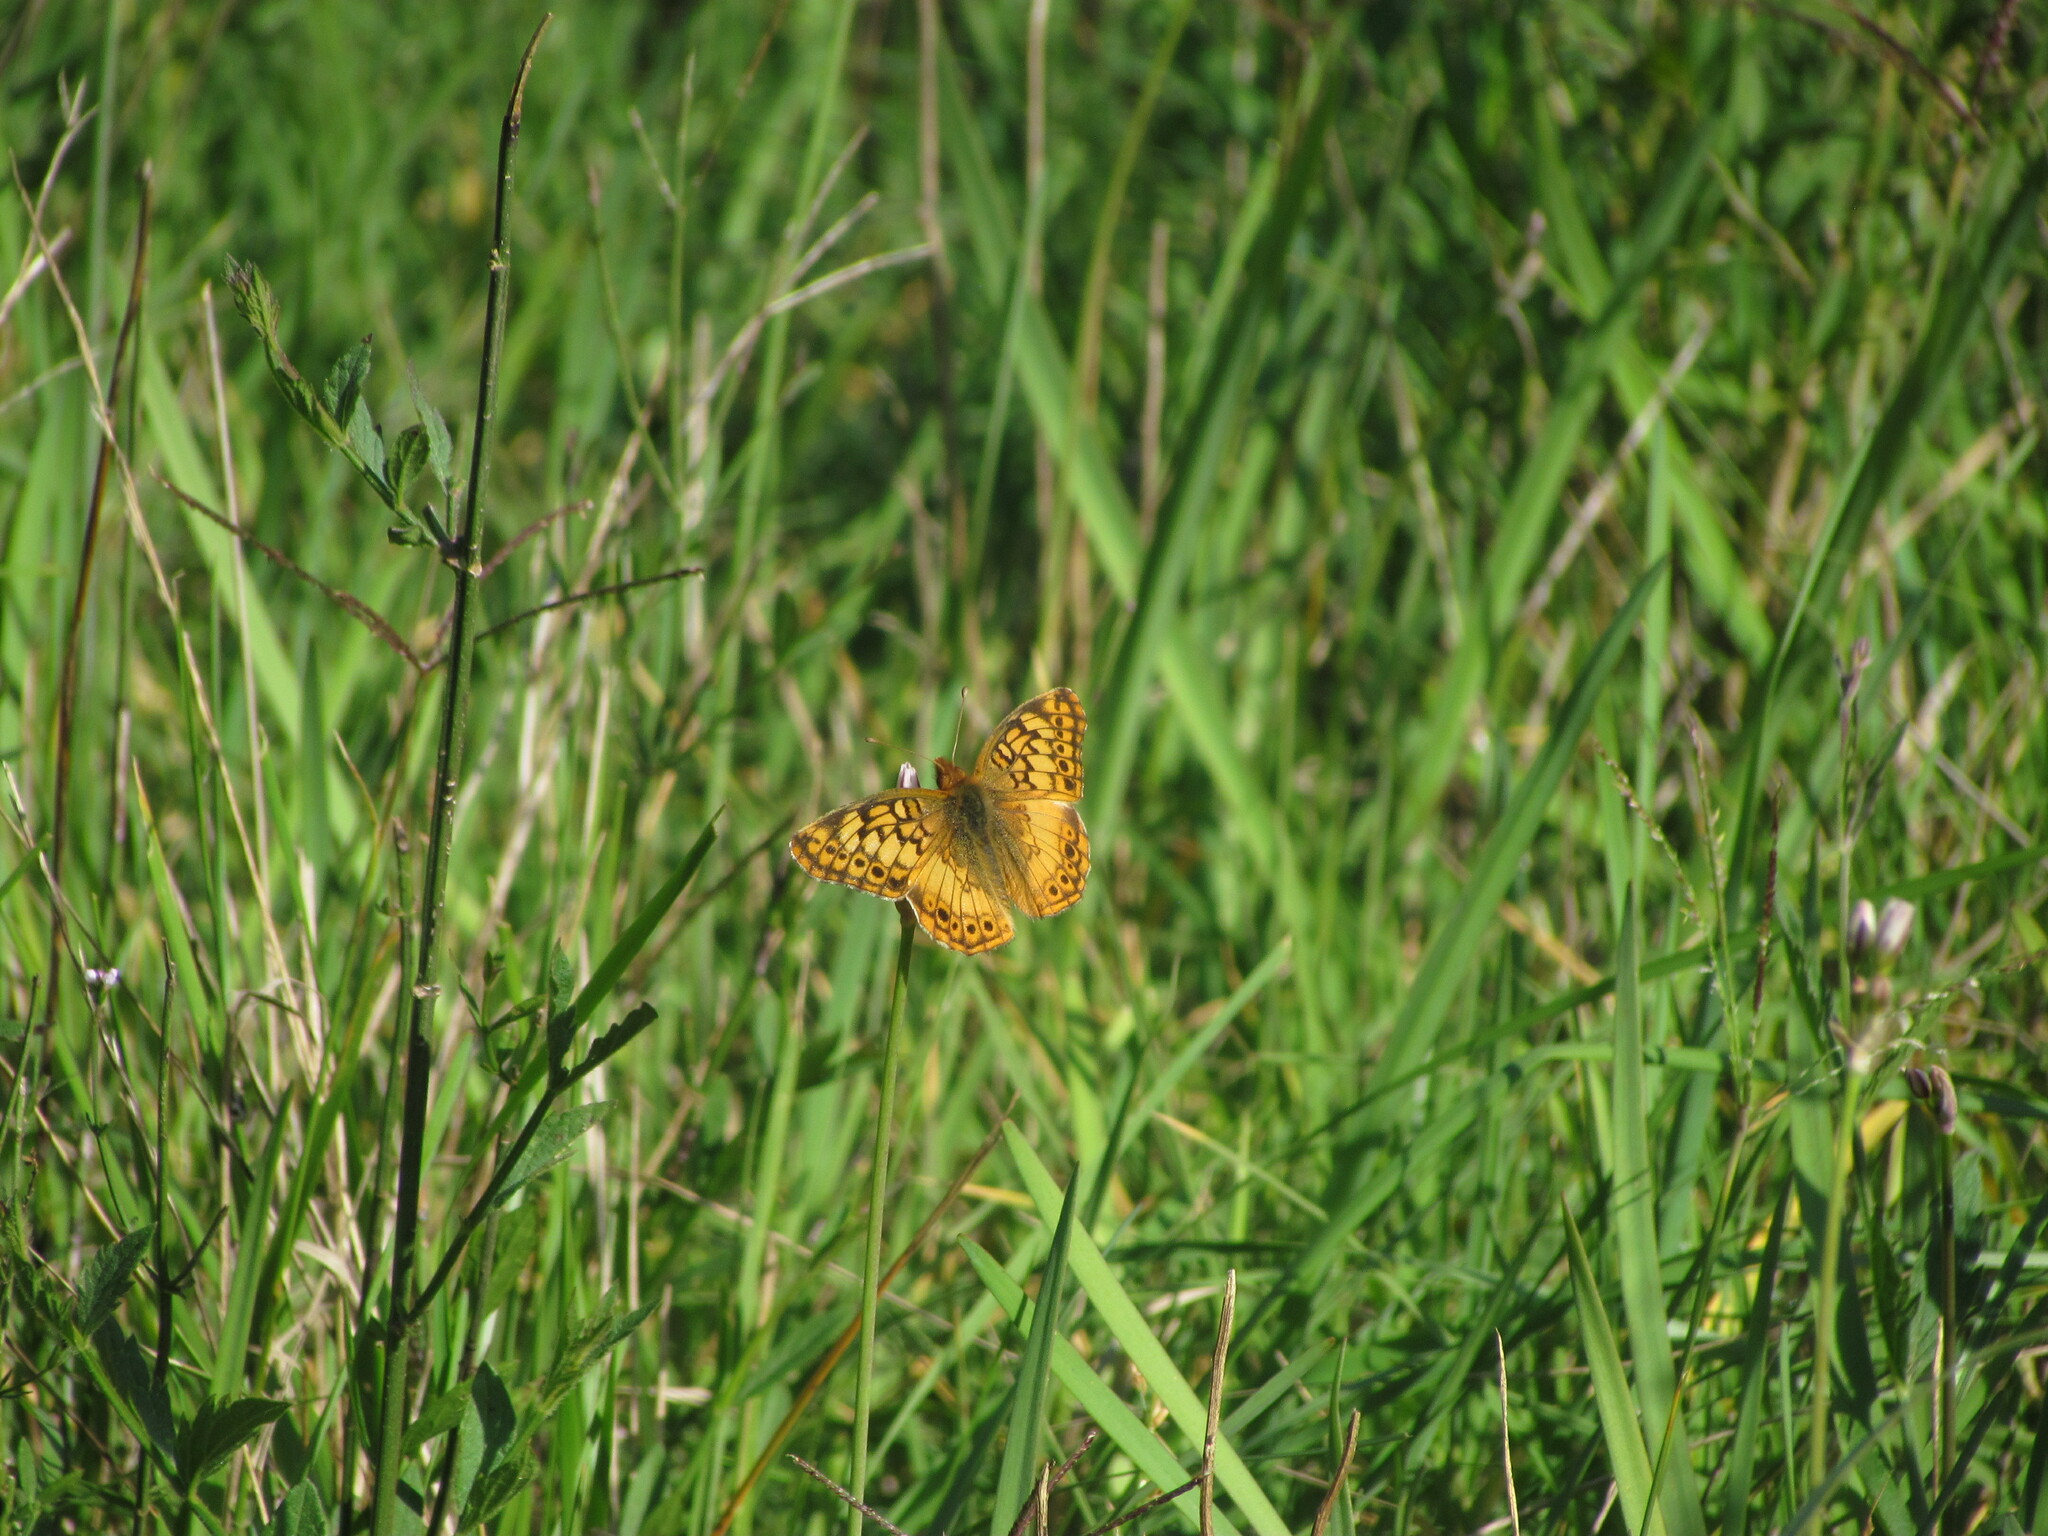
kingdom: Animalia
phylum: Arthropoda
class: Insecta
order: Lepidoptera
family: Nymphalidae
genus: Euptoieta
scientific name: Euptoieta hortensia
